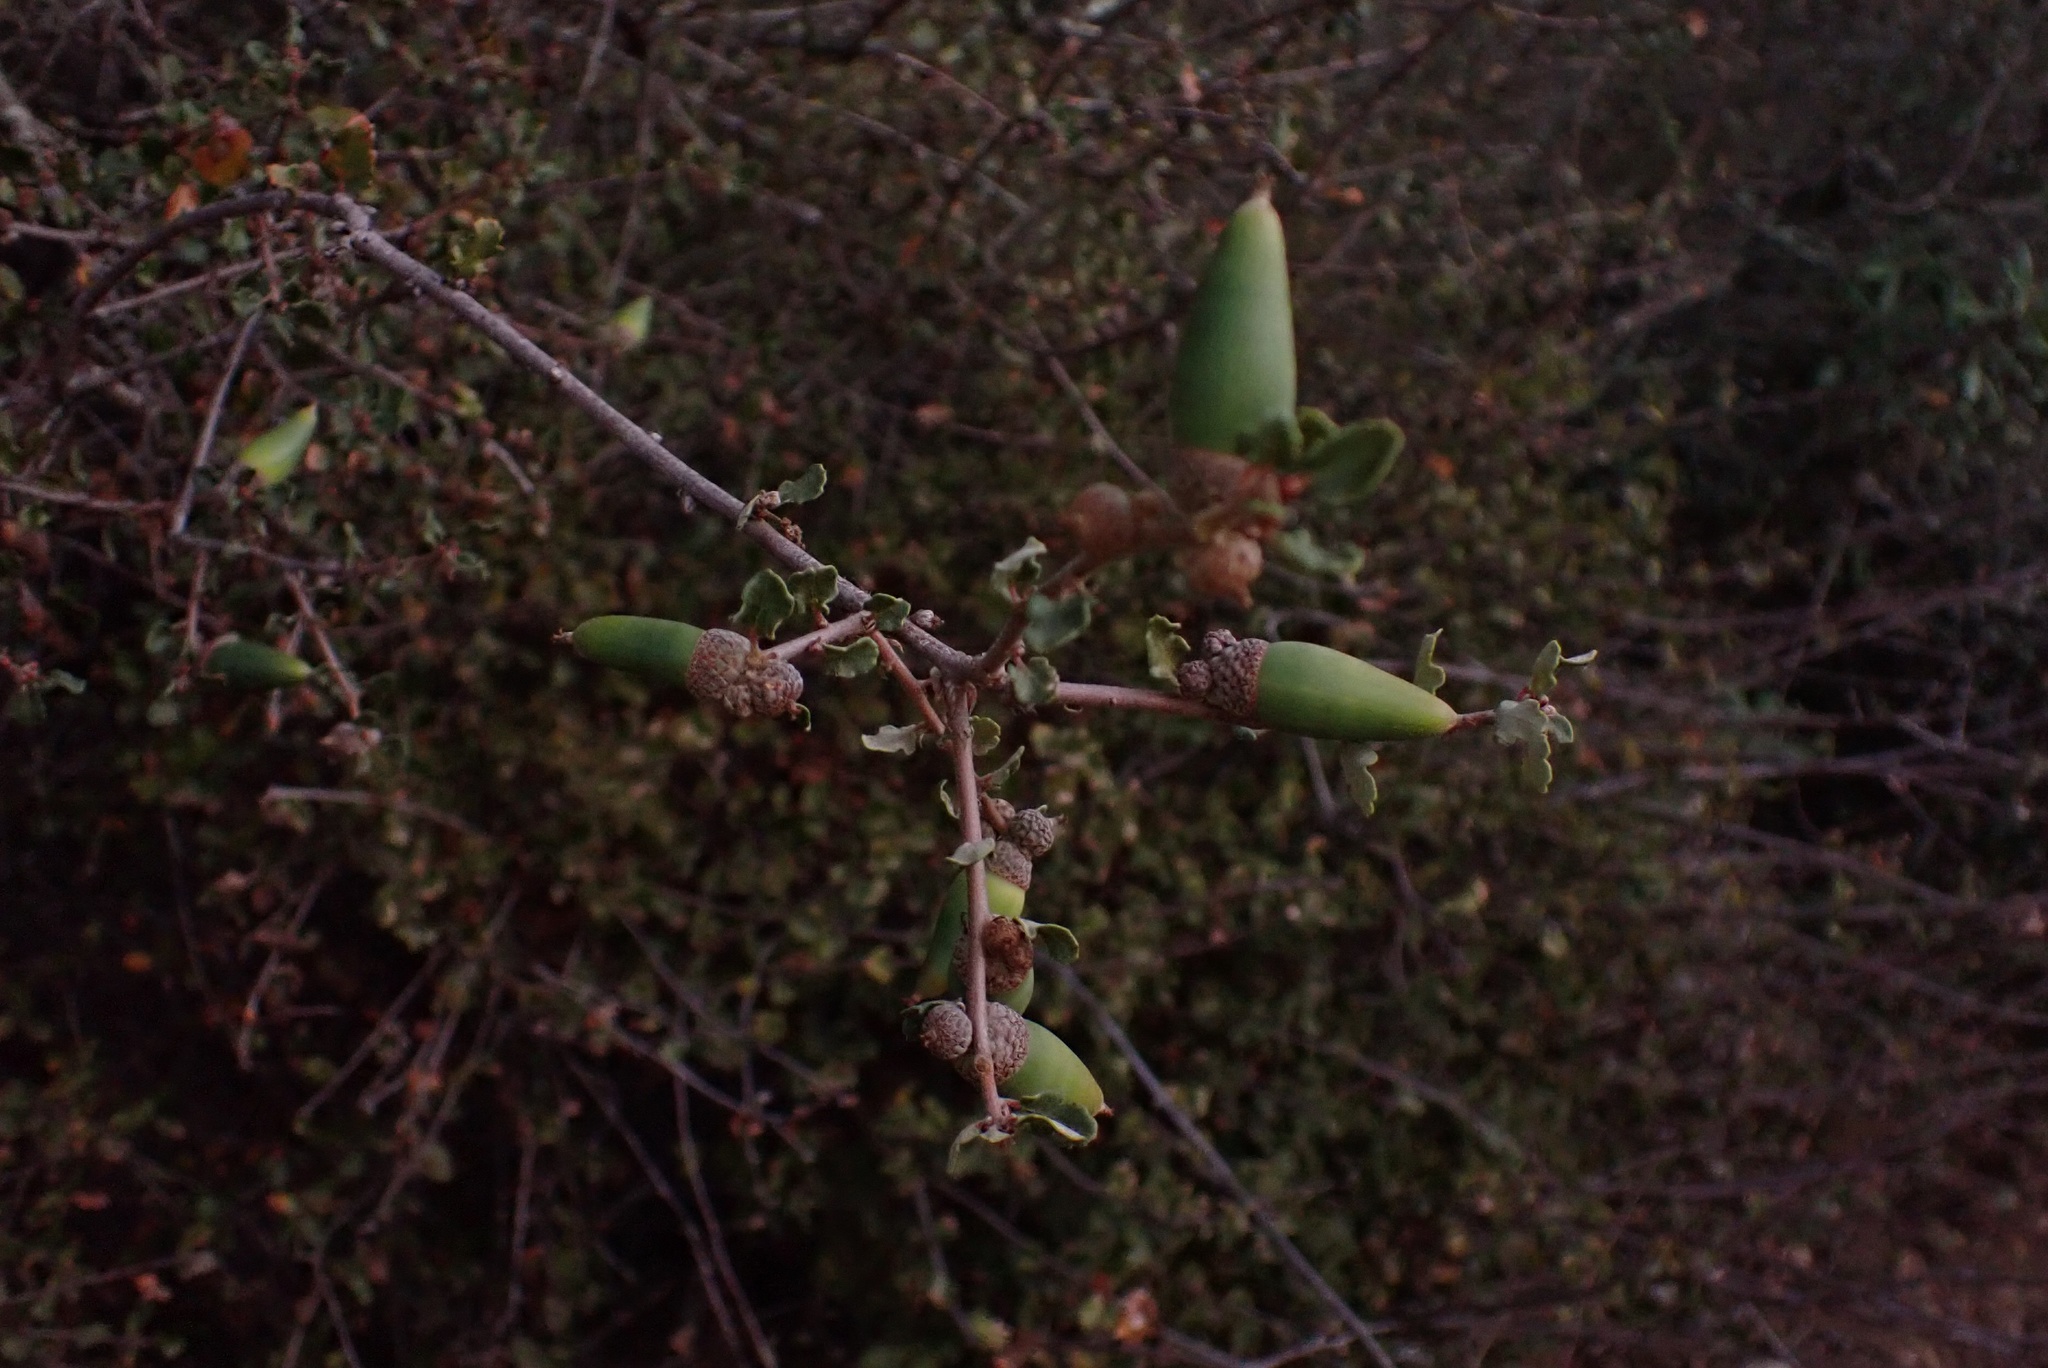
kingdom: Plantae
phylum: Tracheophyta
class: Magnoliopsida
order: Fagales
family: Fagaceae
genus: Quercus
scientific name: Quercus dumosa
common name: Coastal sage scrub oak
